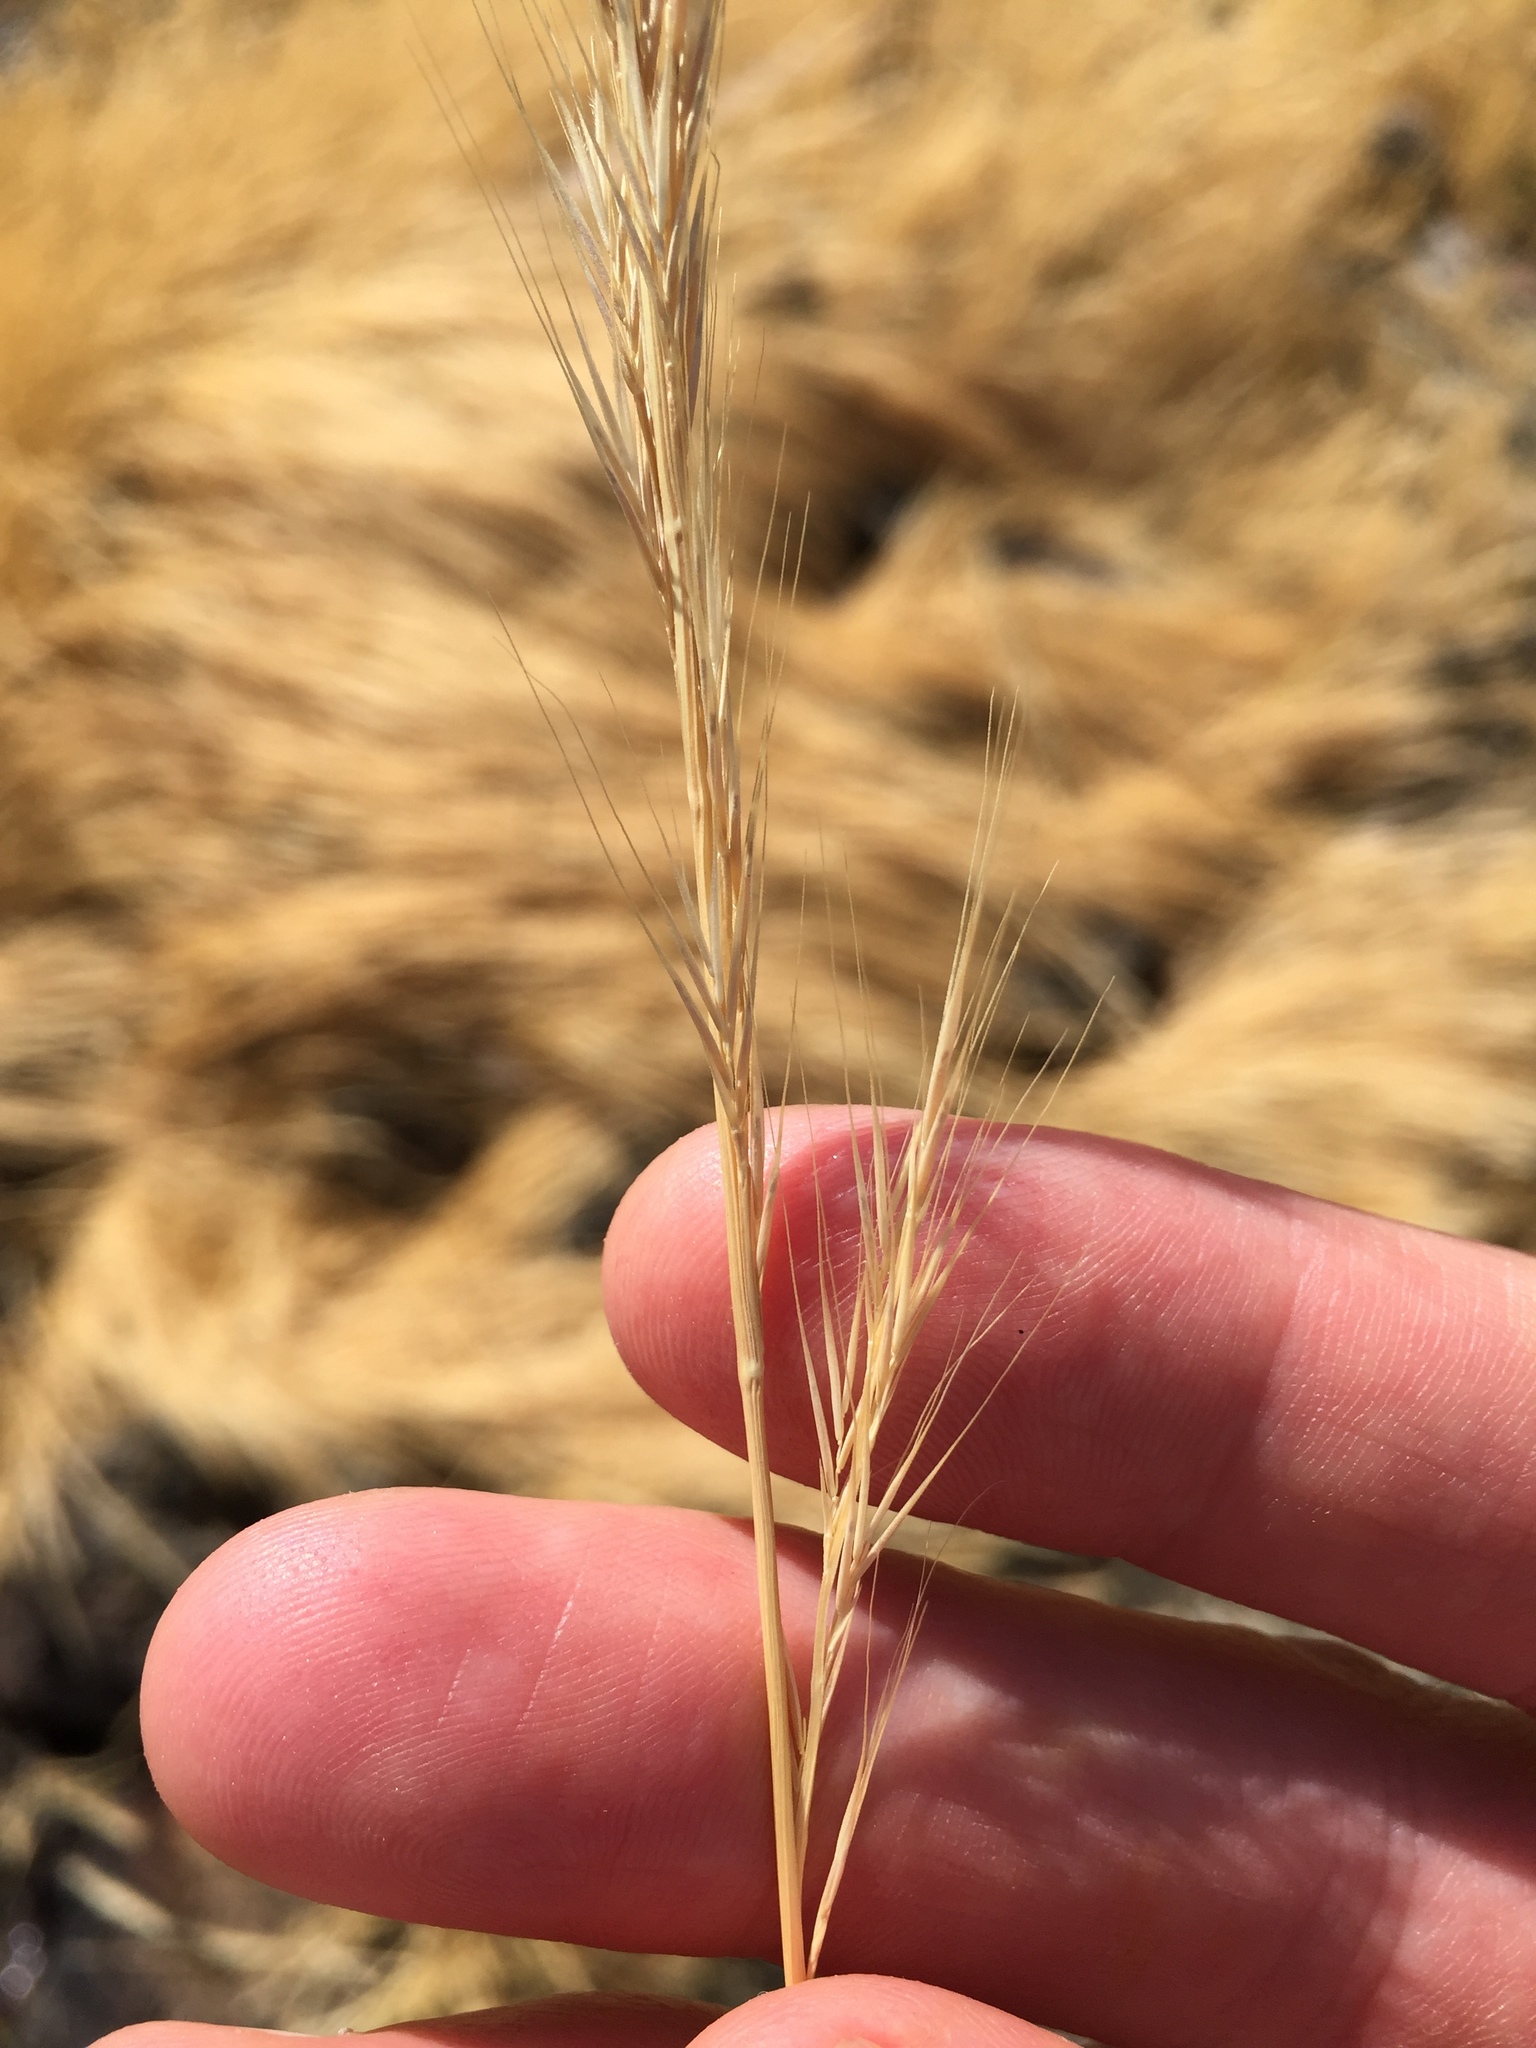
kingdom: Plantae
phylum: Tracheophyta
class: Liliopsida
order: Poales
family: Poaceae
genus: Festuca
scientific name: Festuca myuros
